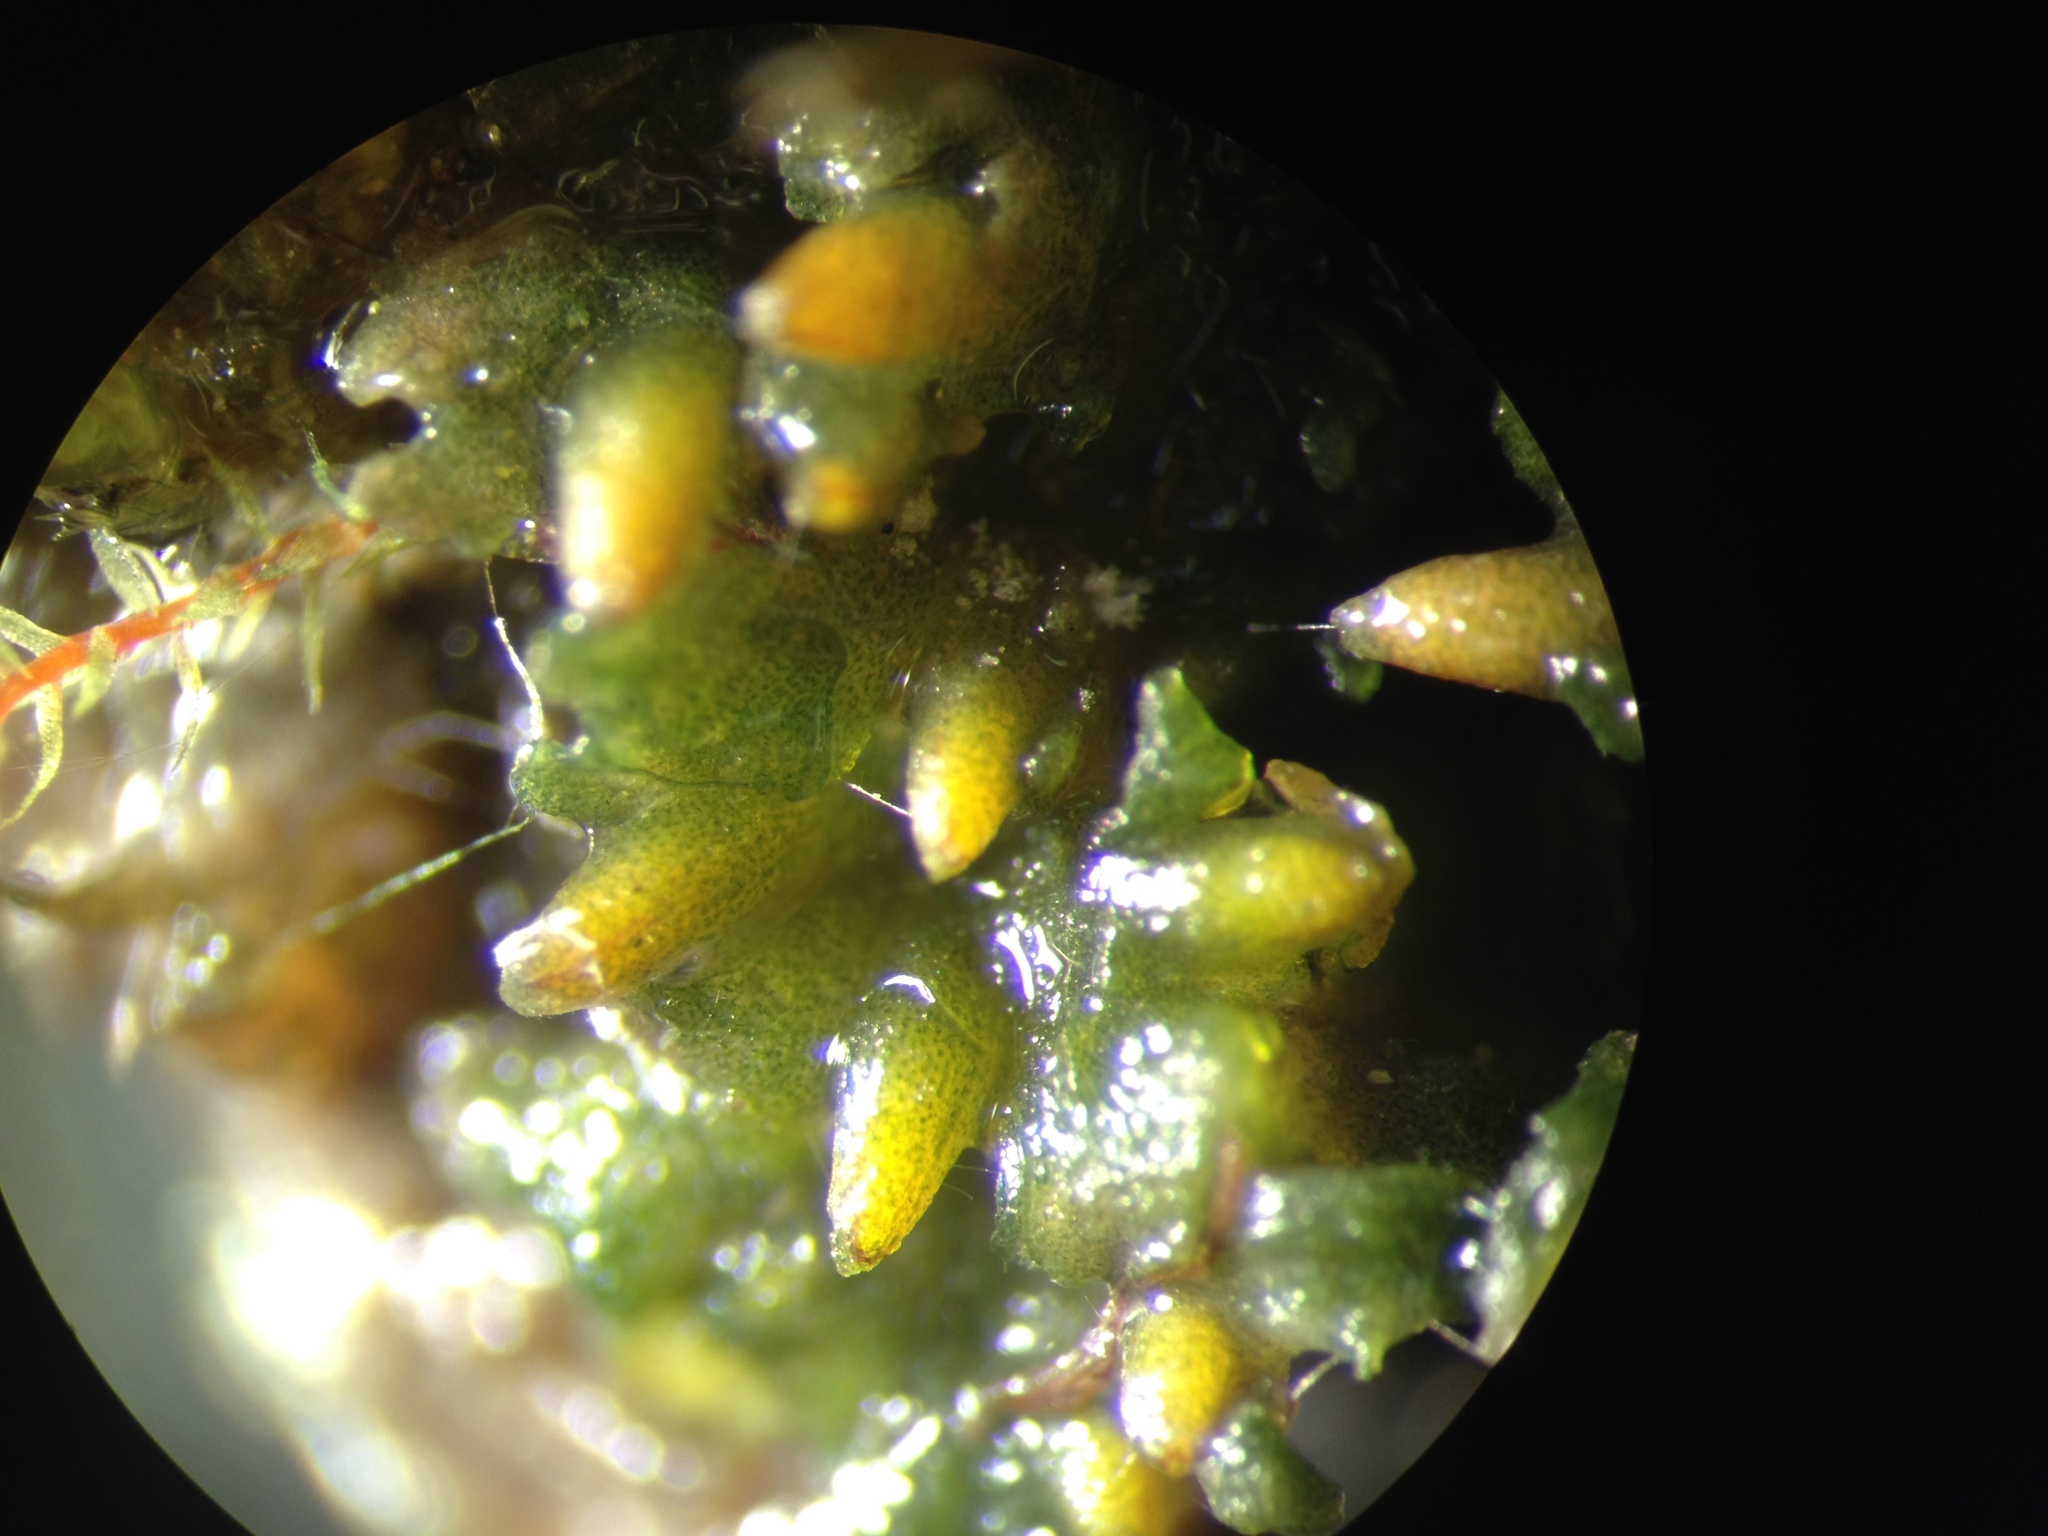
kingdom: Plantae
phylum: Anthocerotophyta
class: Anthocerotopsida
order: Notothyladales
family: Notothyladaceae
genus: Notothylas
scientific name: Notothylas orbicularis
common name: Short-horned liverwort
